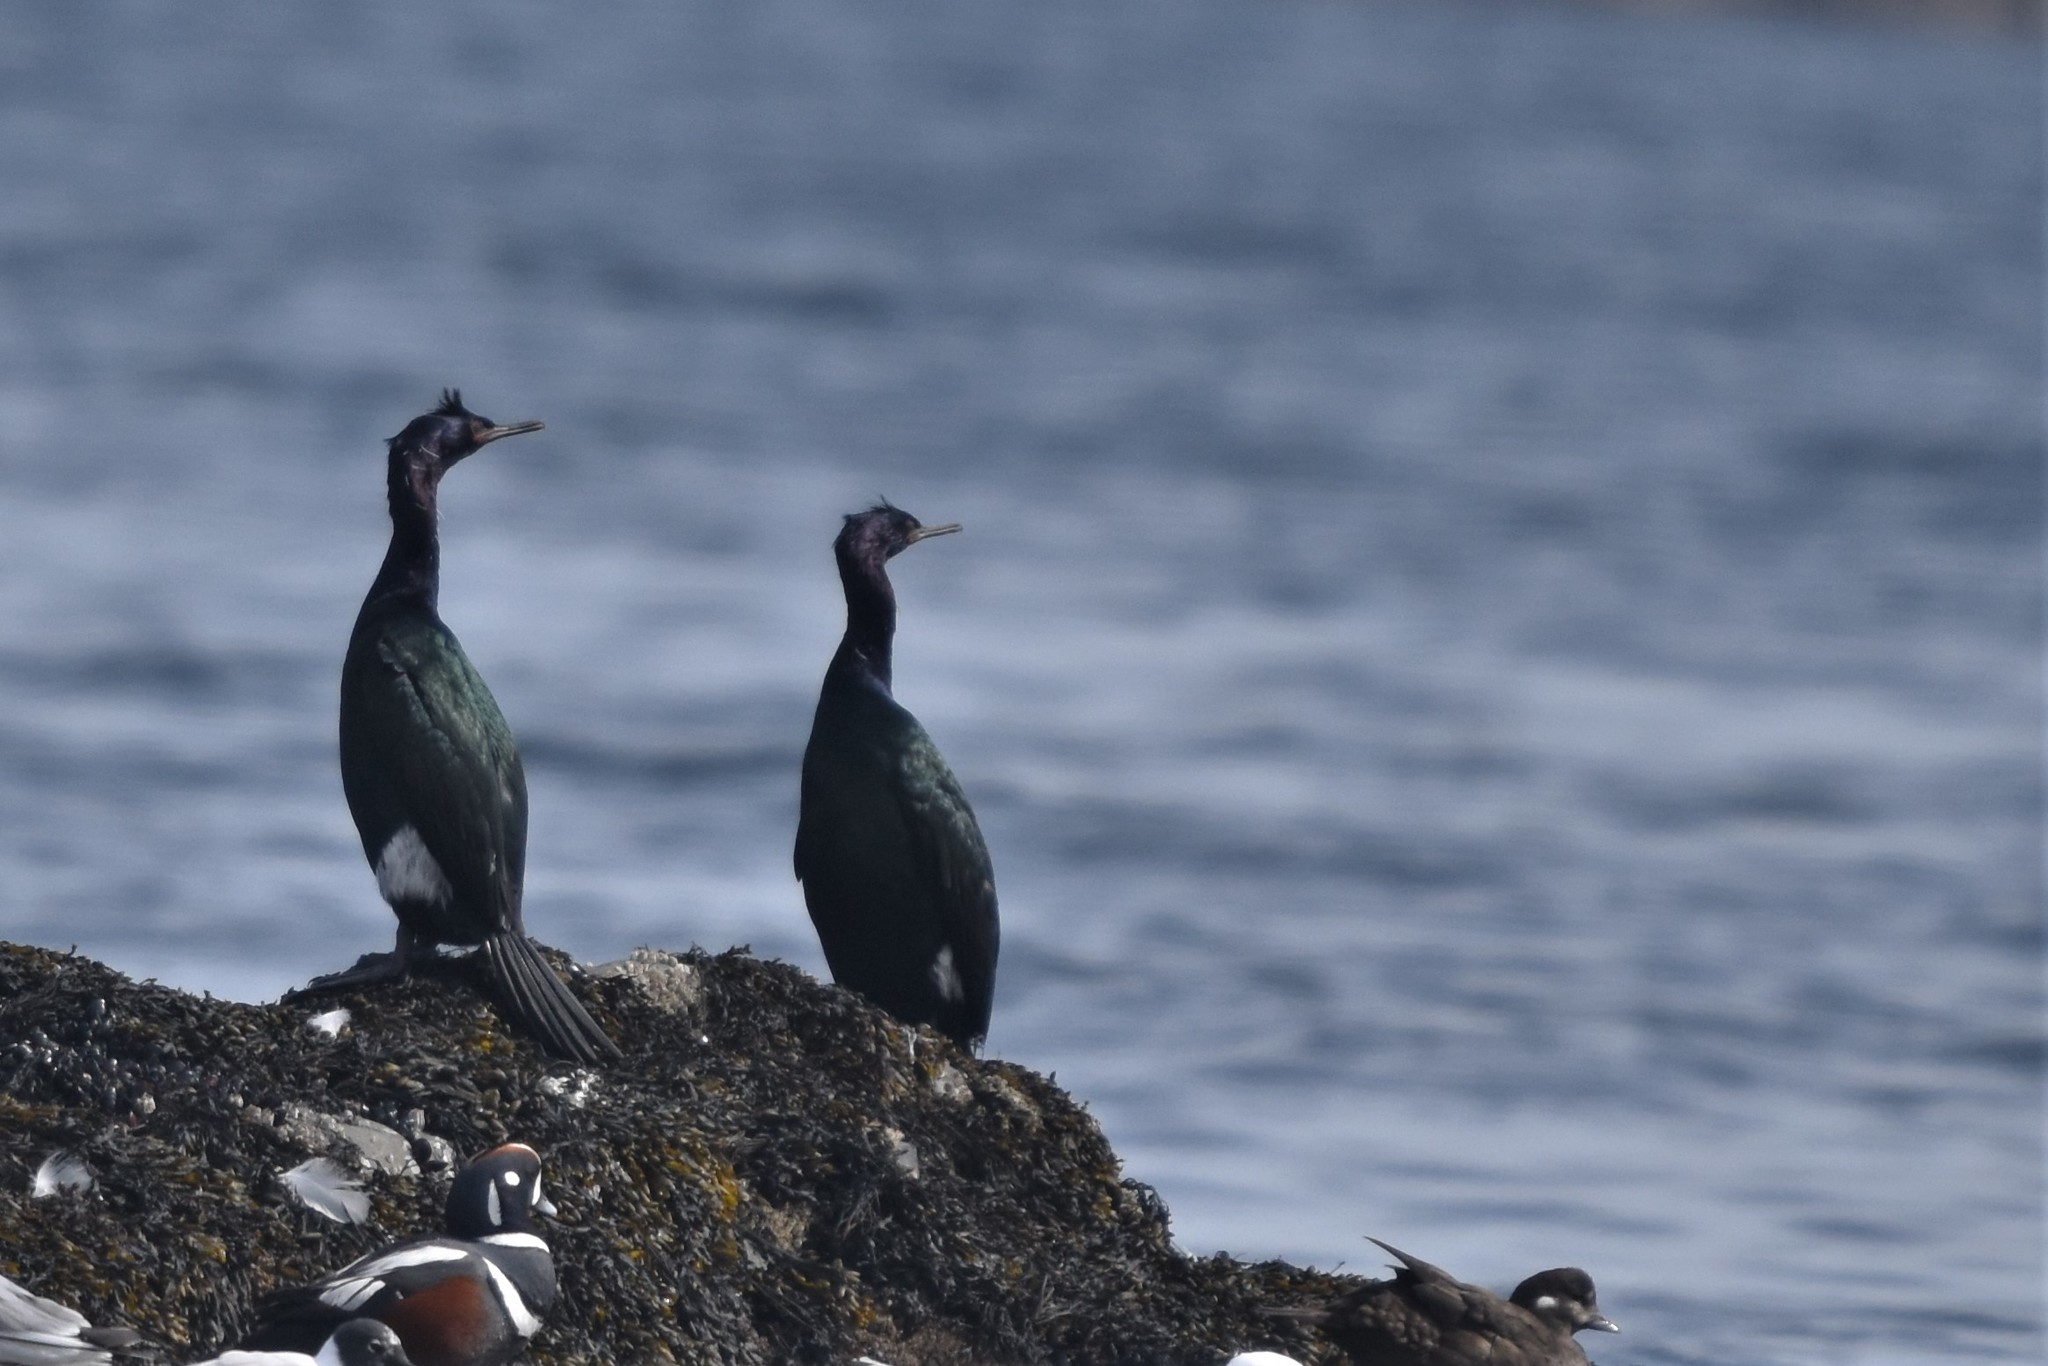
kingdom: Animalia
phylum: Chordata
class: Aves
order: Suliformes
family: Phalacrocoracidae
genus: Phalacrocorax
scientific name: Phalacrocorax pelagicus
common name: Pelagic cormorant
